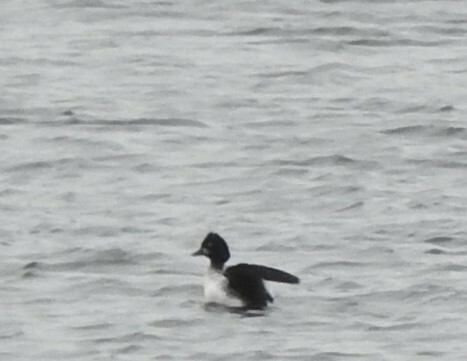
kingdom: Animalia
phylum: Chordata
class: Aves
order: Anseriformes
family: Anatidae
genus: Bucephala
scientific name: Bucephala clangula
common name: Common goldeneye
